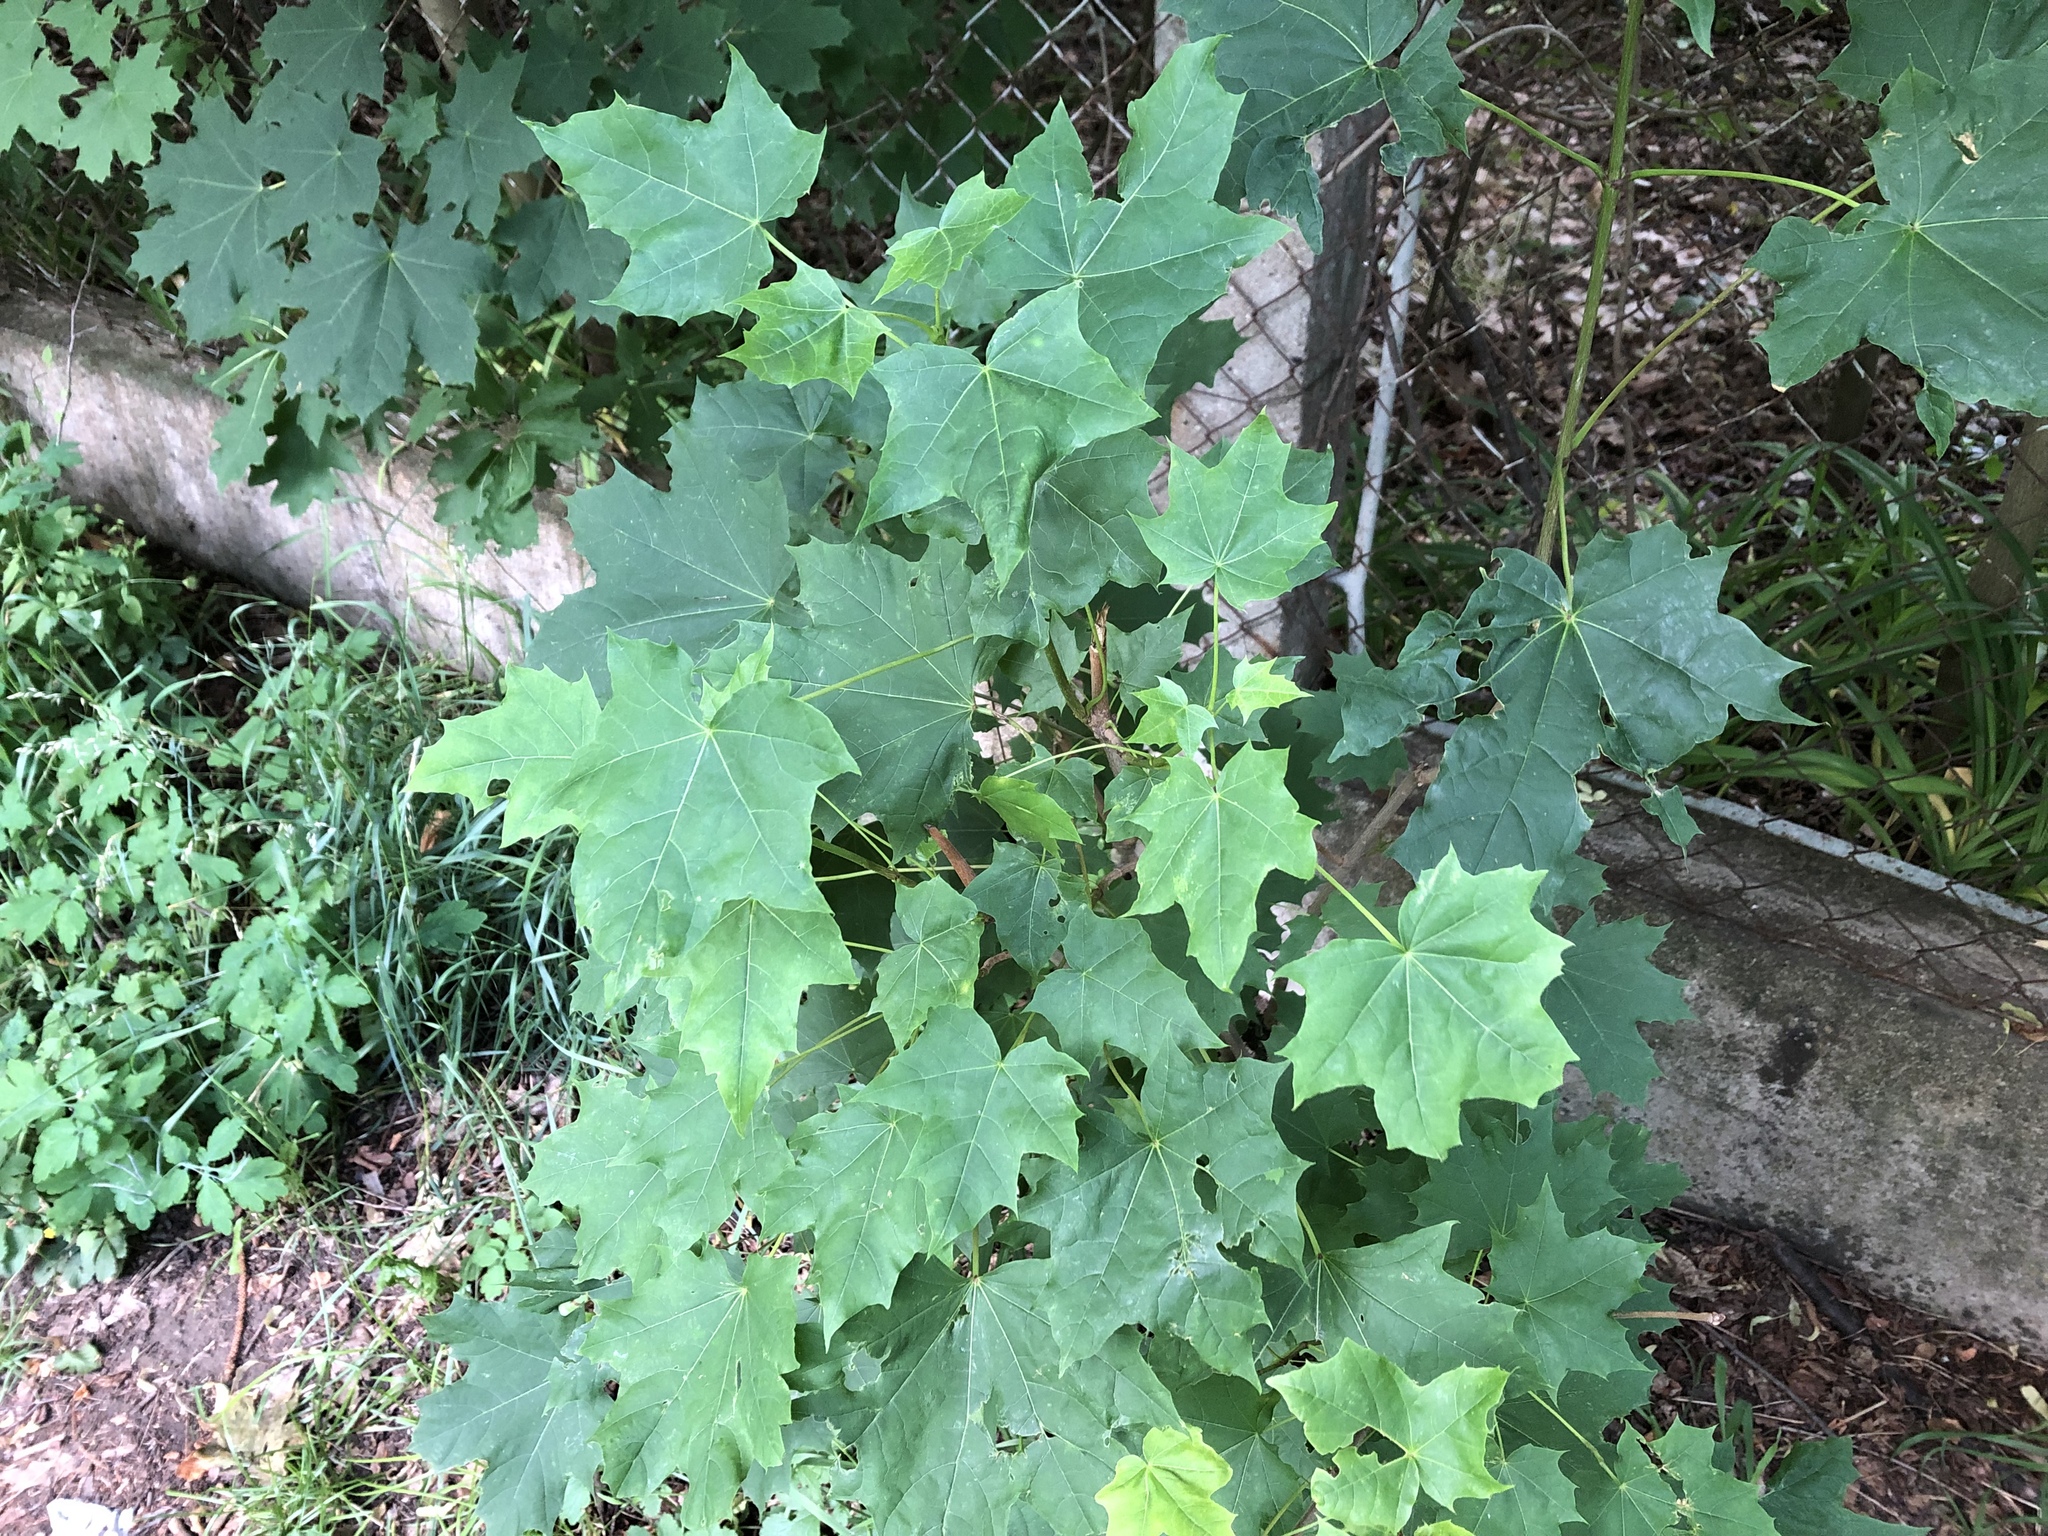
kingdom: Plantae
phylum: Tracheophyta
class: Magnoliopsida
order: Sapindales
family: Sapindaceae
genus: Acer
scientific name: Acer platanoides
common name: Norway maple
